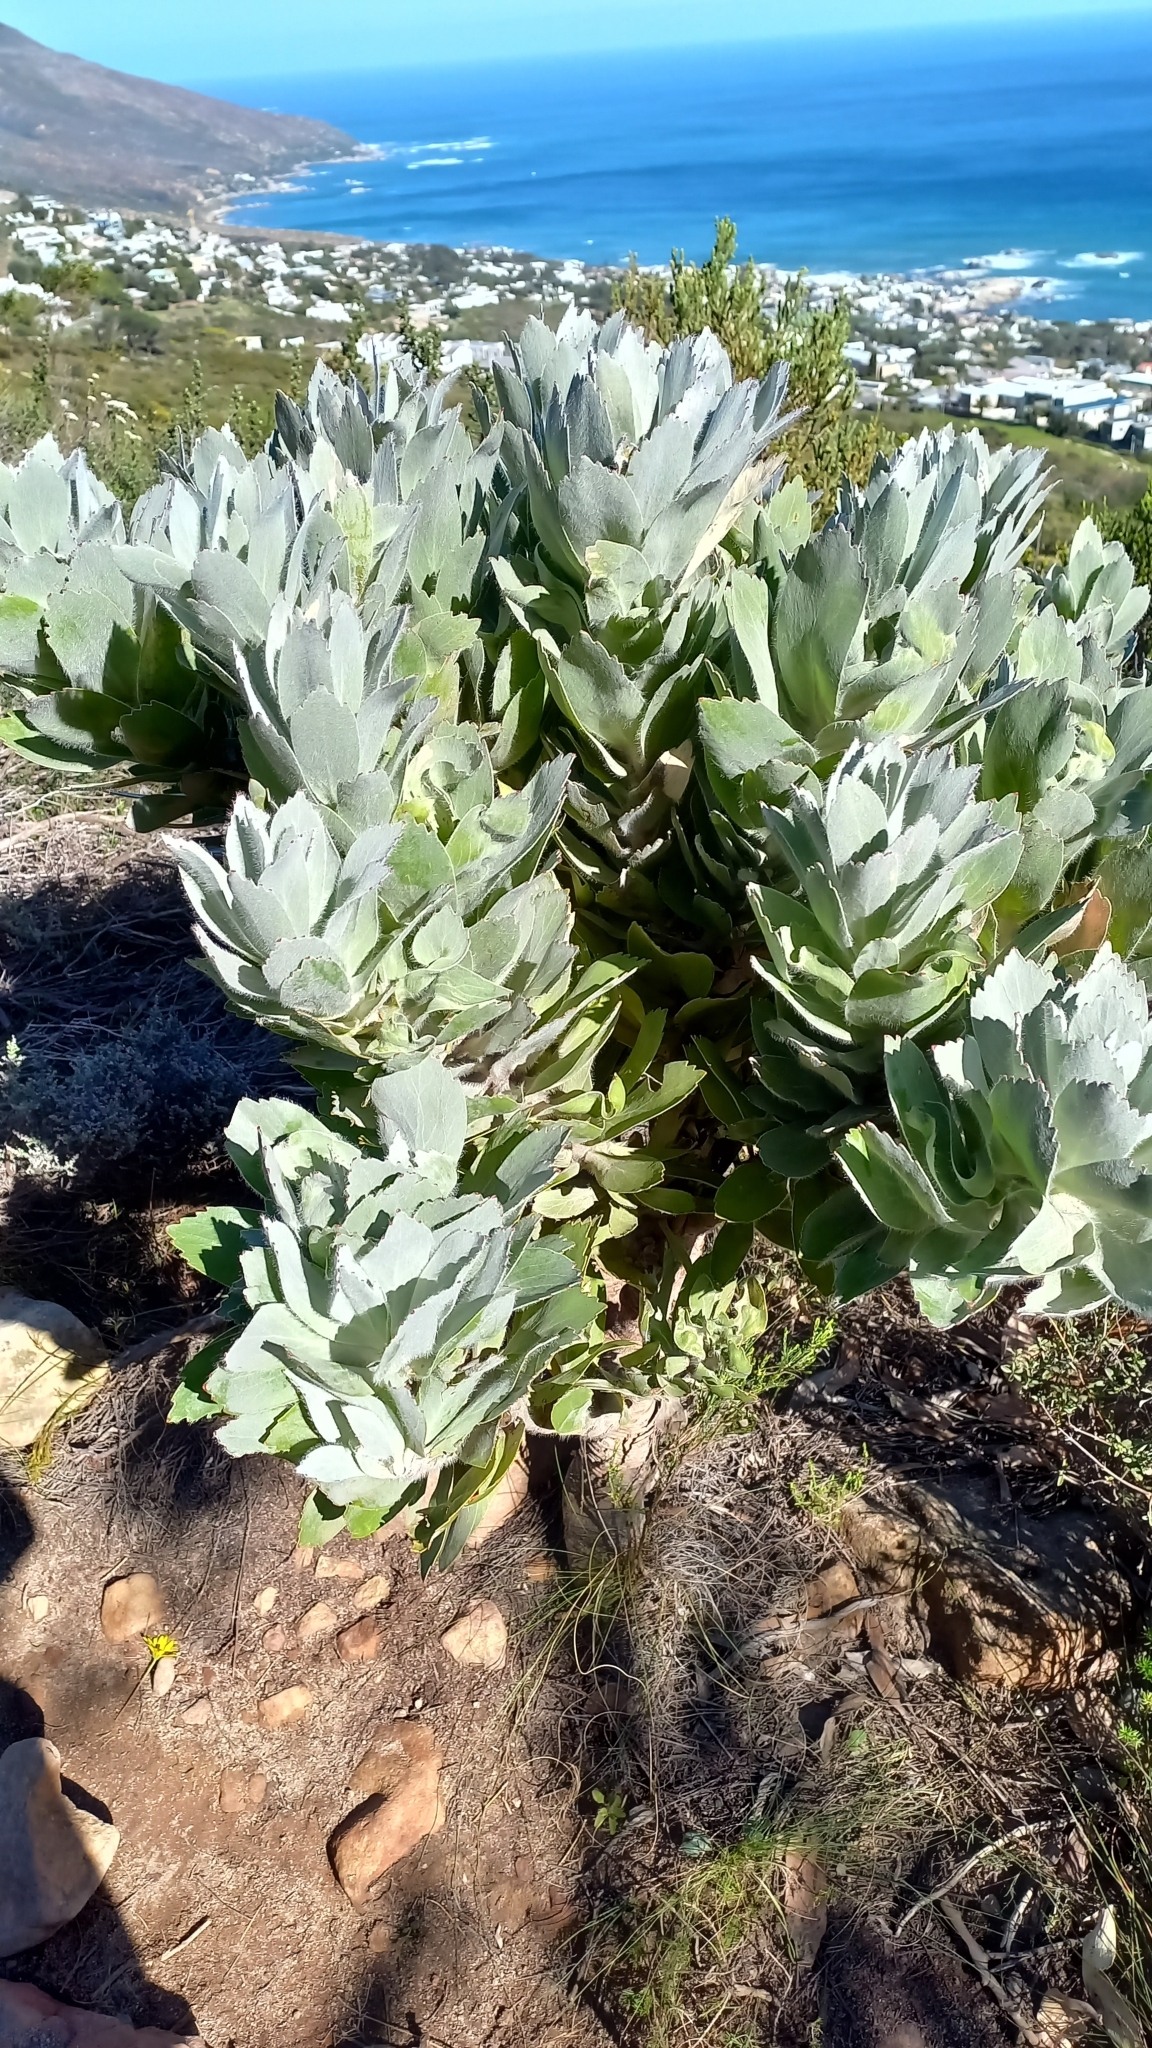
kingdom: Plantae
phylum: Tracheophyta
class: Magnoliopsida
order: Proteales
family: Proteaceae
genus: Leucospermum
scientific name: Leucospermum conocarpodendron
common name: Tree pincushion
